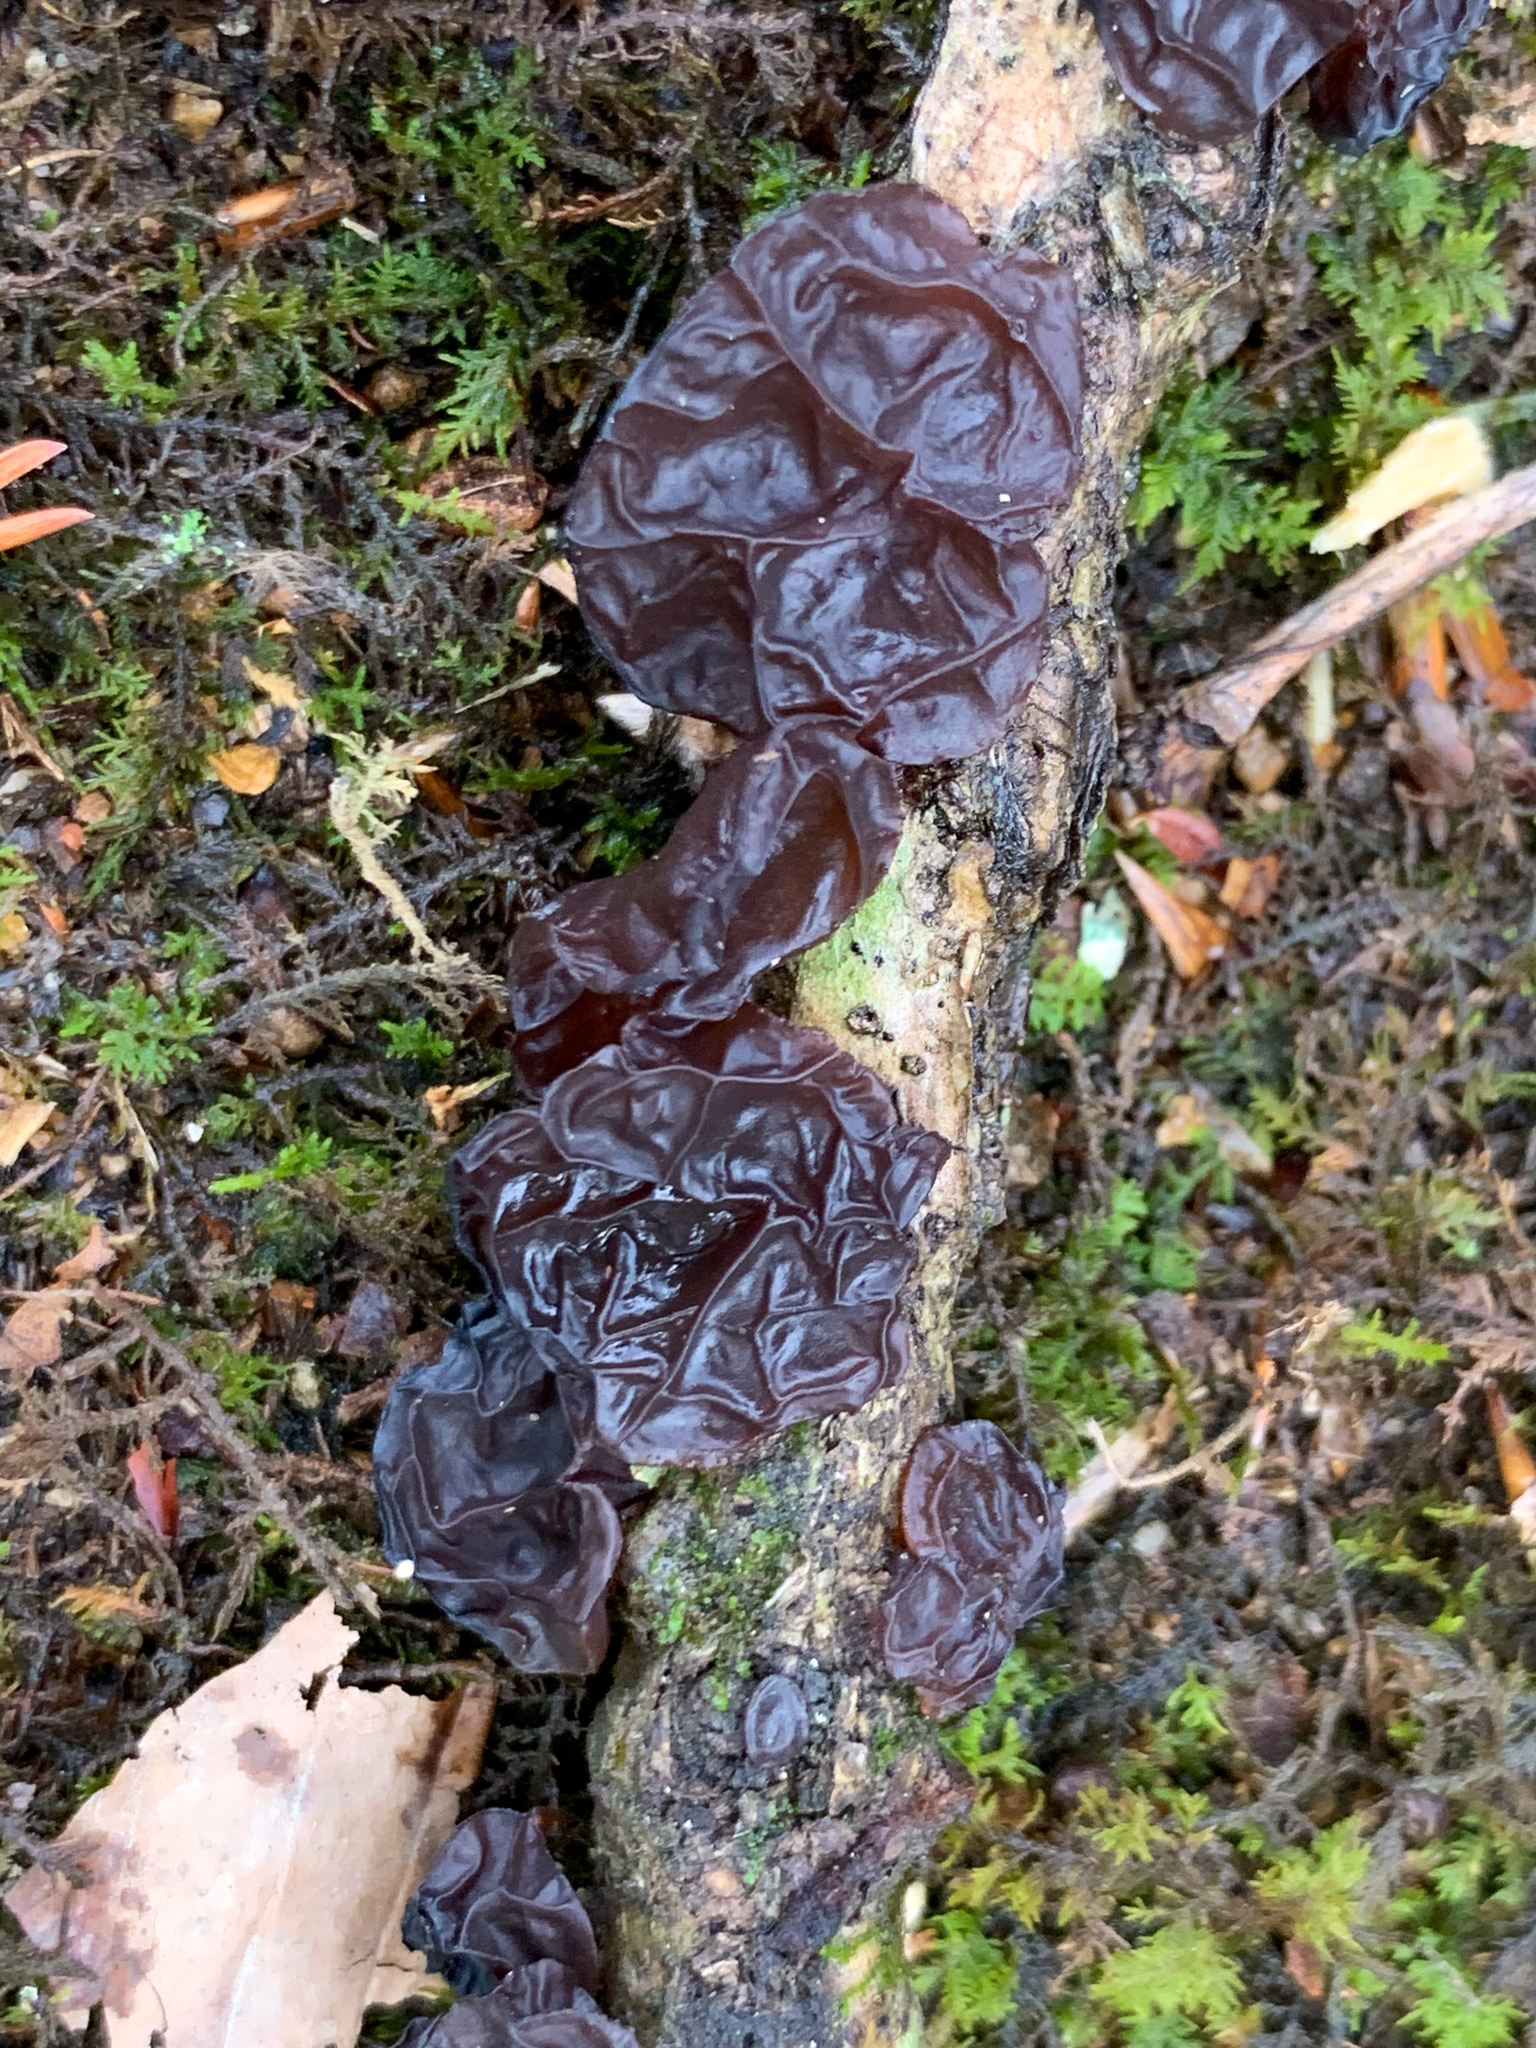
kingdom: Fungi
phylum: Basidiomycota
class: Agaricomycetes
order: Auriculariales
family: Auriculariaceae
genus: Exidia
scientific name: Exidia
